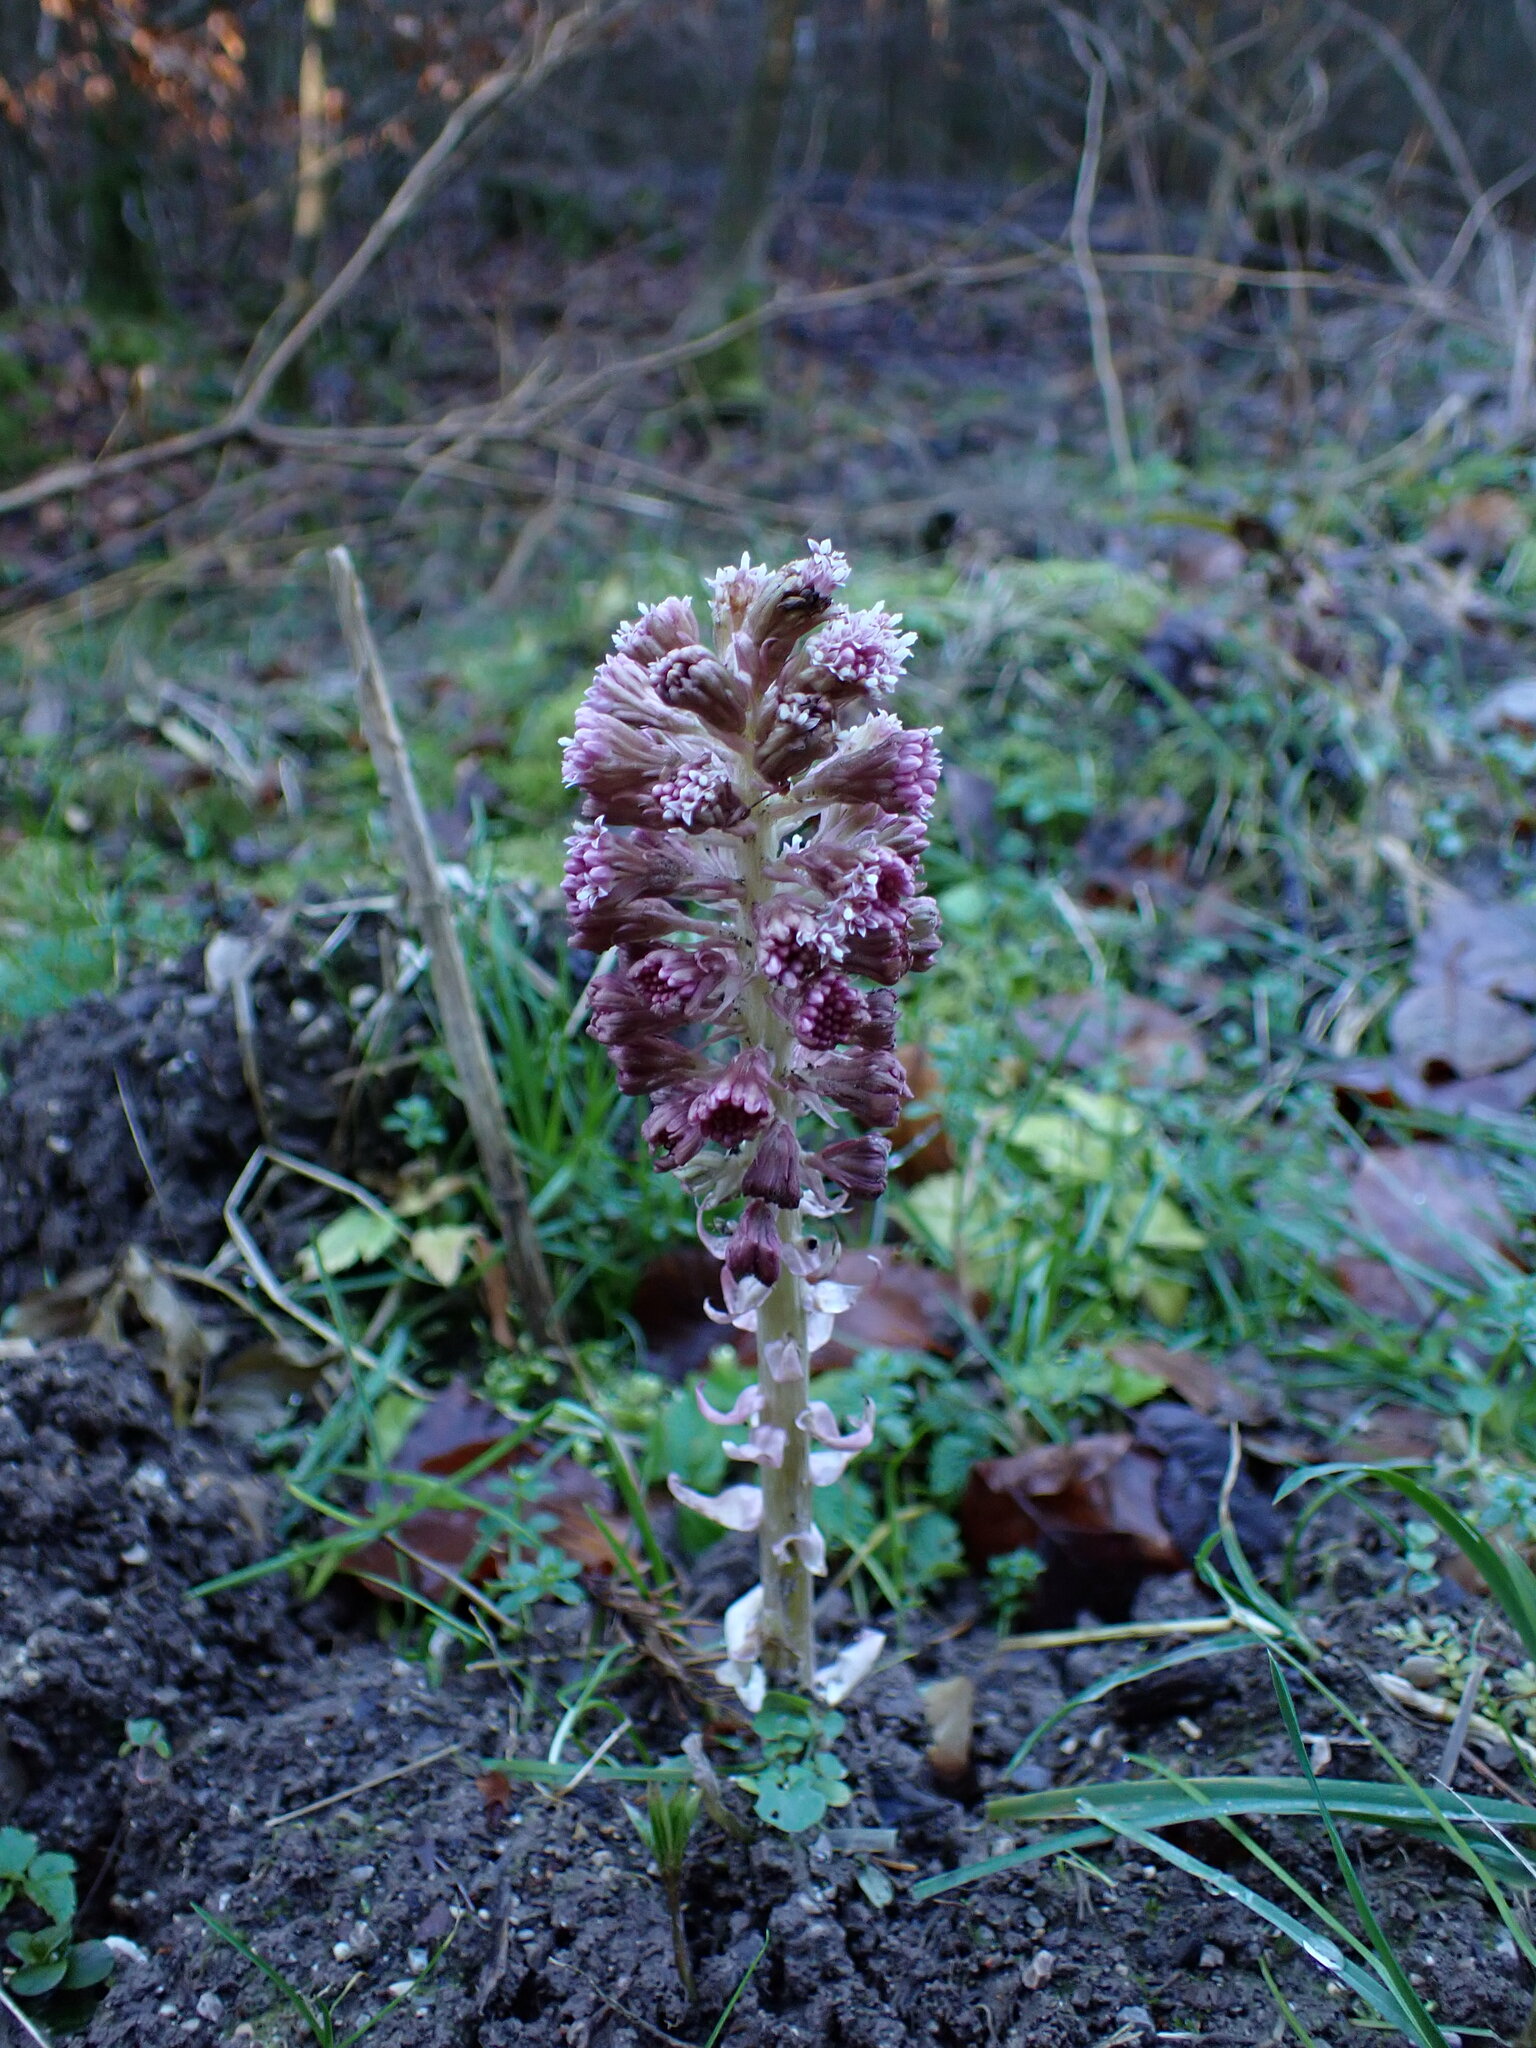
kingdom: Plantae
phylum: Tracheophyta
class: Magnoliopsida
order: Asterales
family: Asteraceae
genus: Petasites
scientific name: Petasites hybridus
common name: Butterbur
